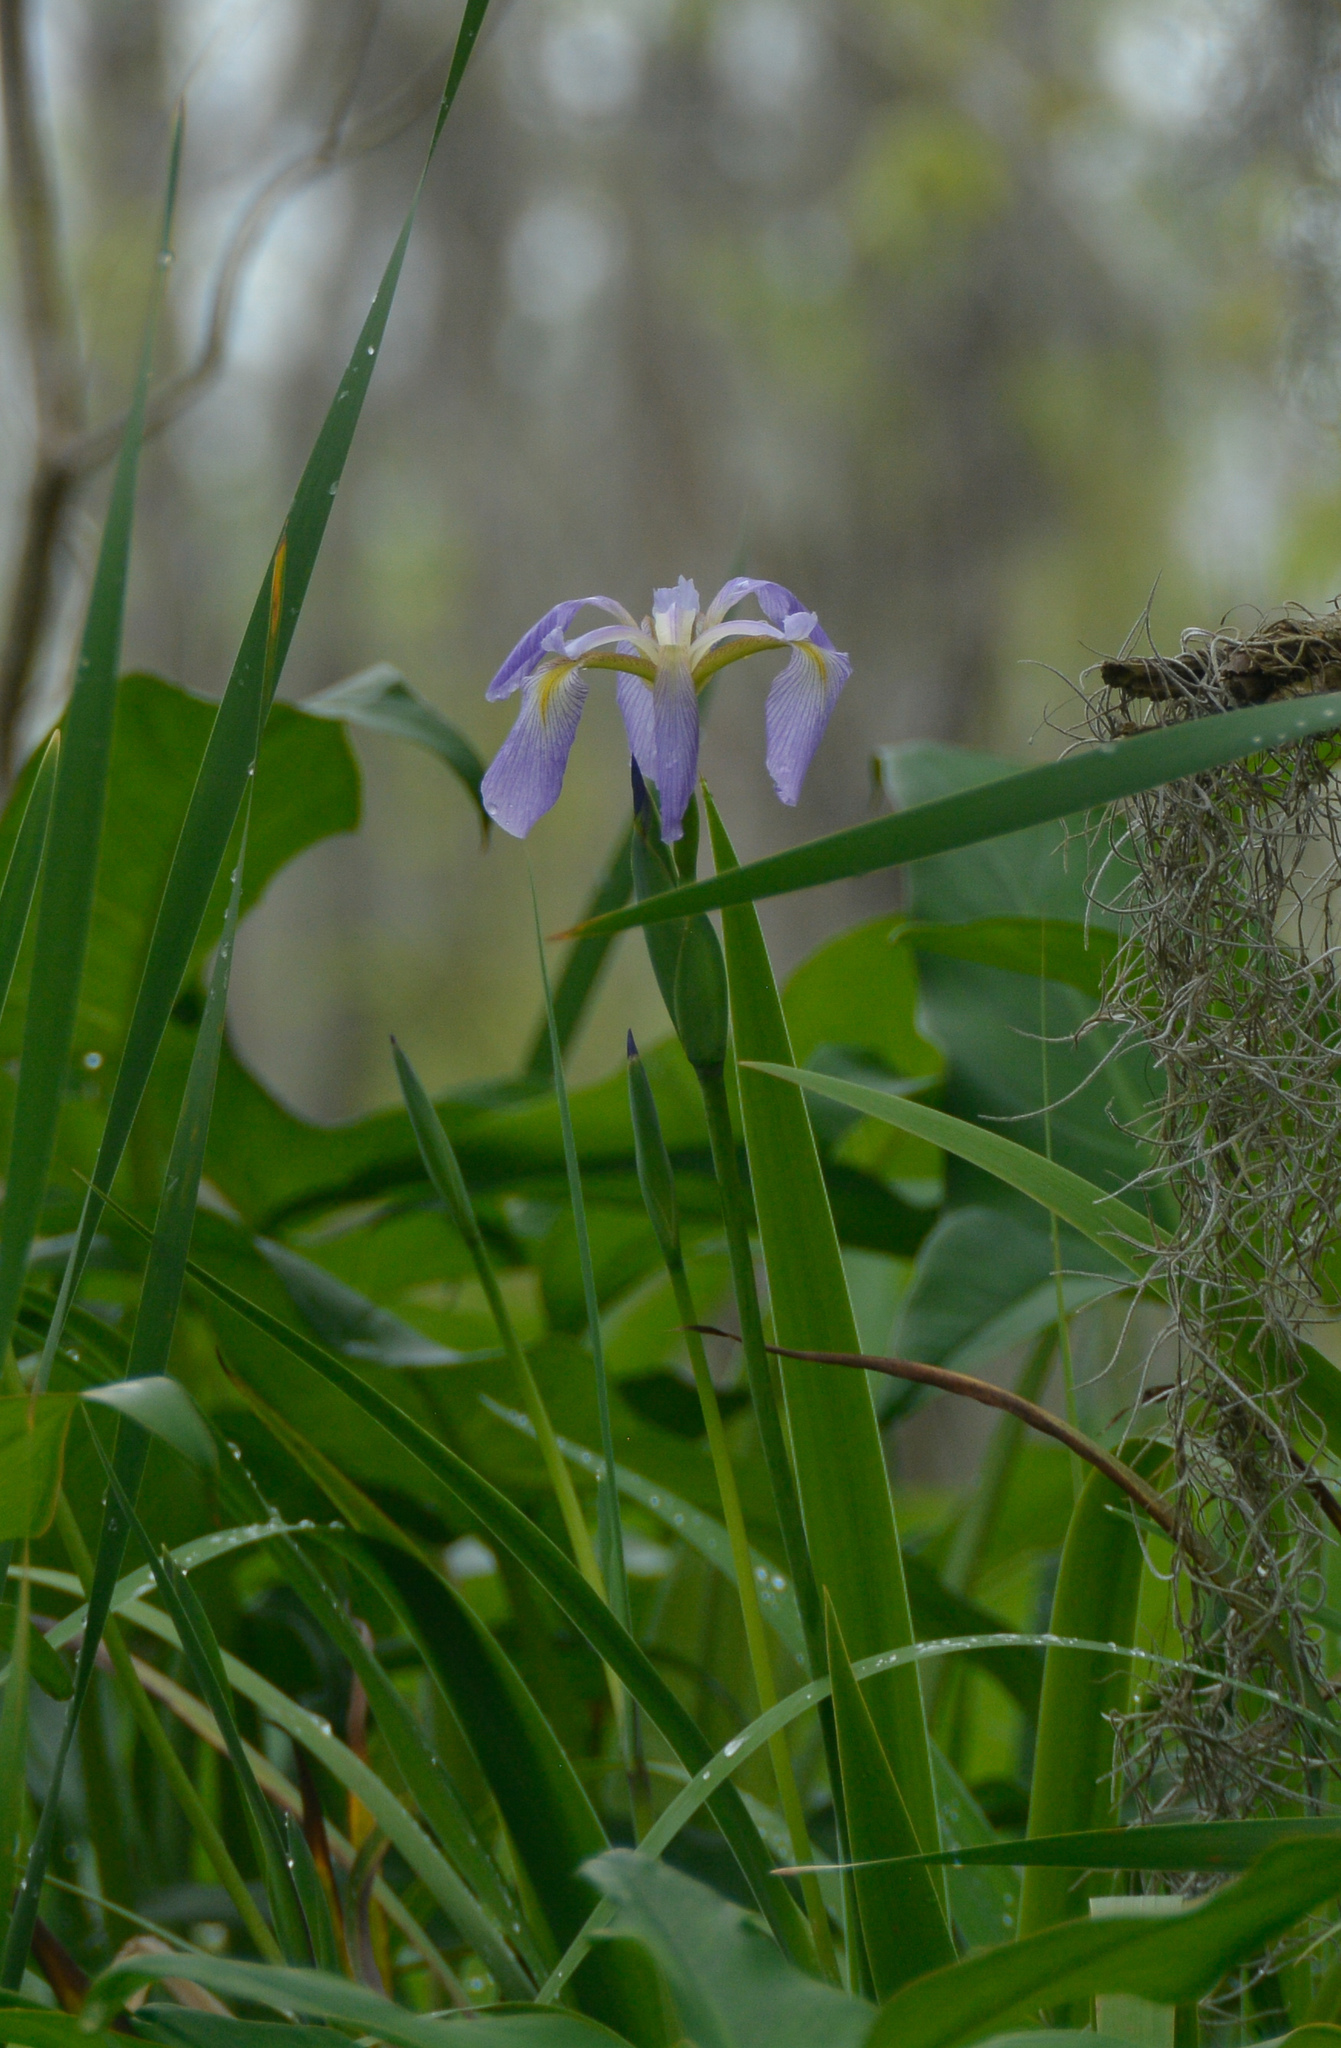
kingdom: Plantae
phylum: Tracheophyta
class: Liliopsida
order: Asparagales
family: Iridaceae
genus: Iris
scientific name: Iris virginica
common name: Southern blue flag
